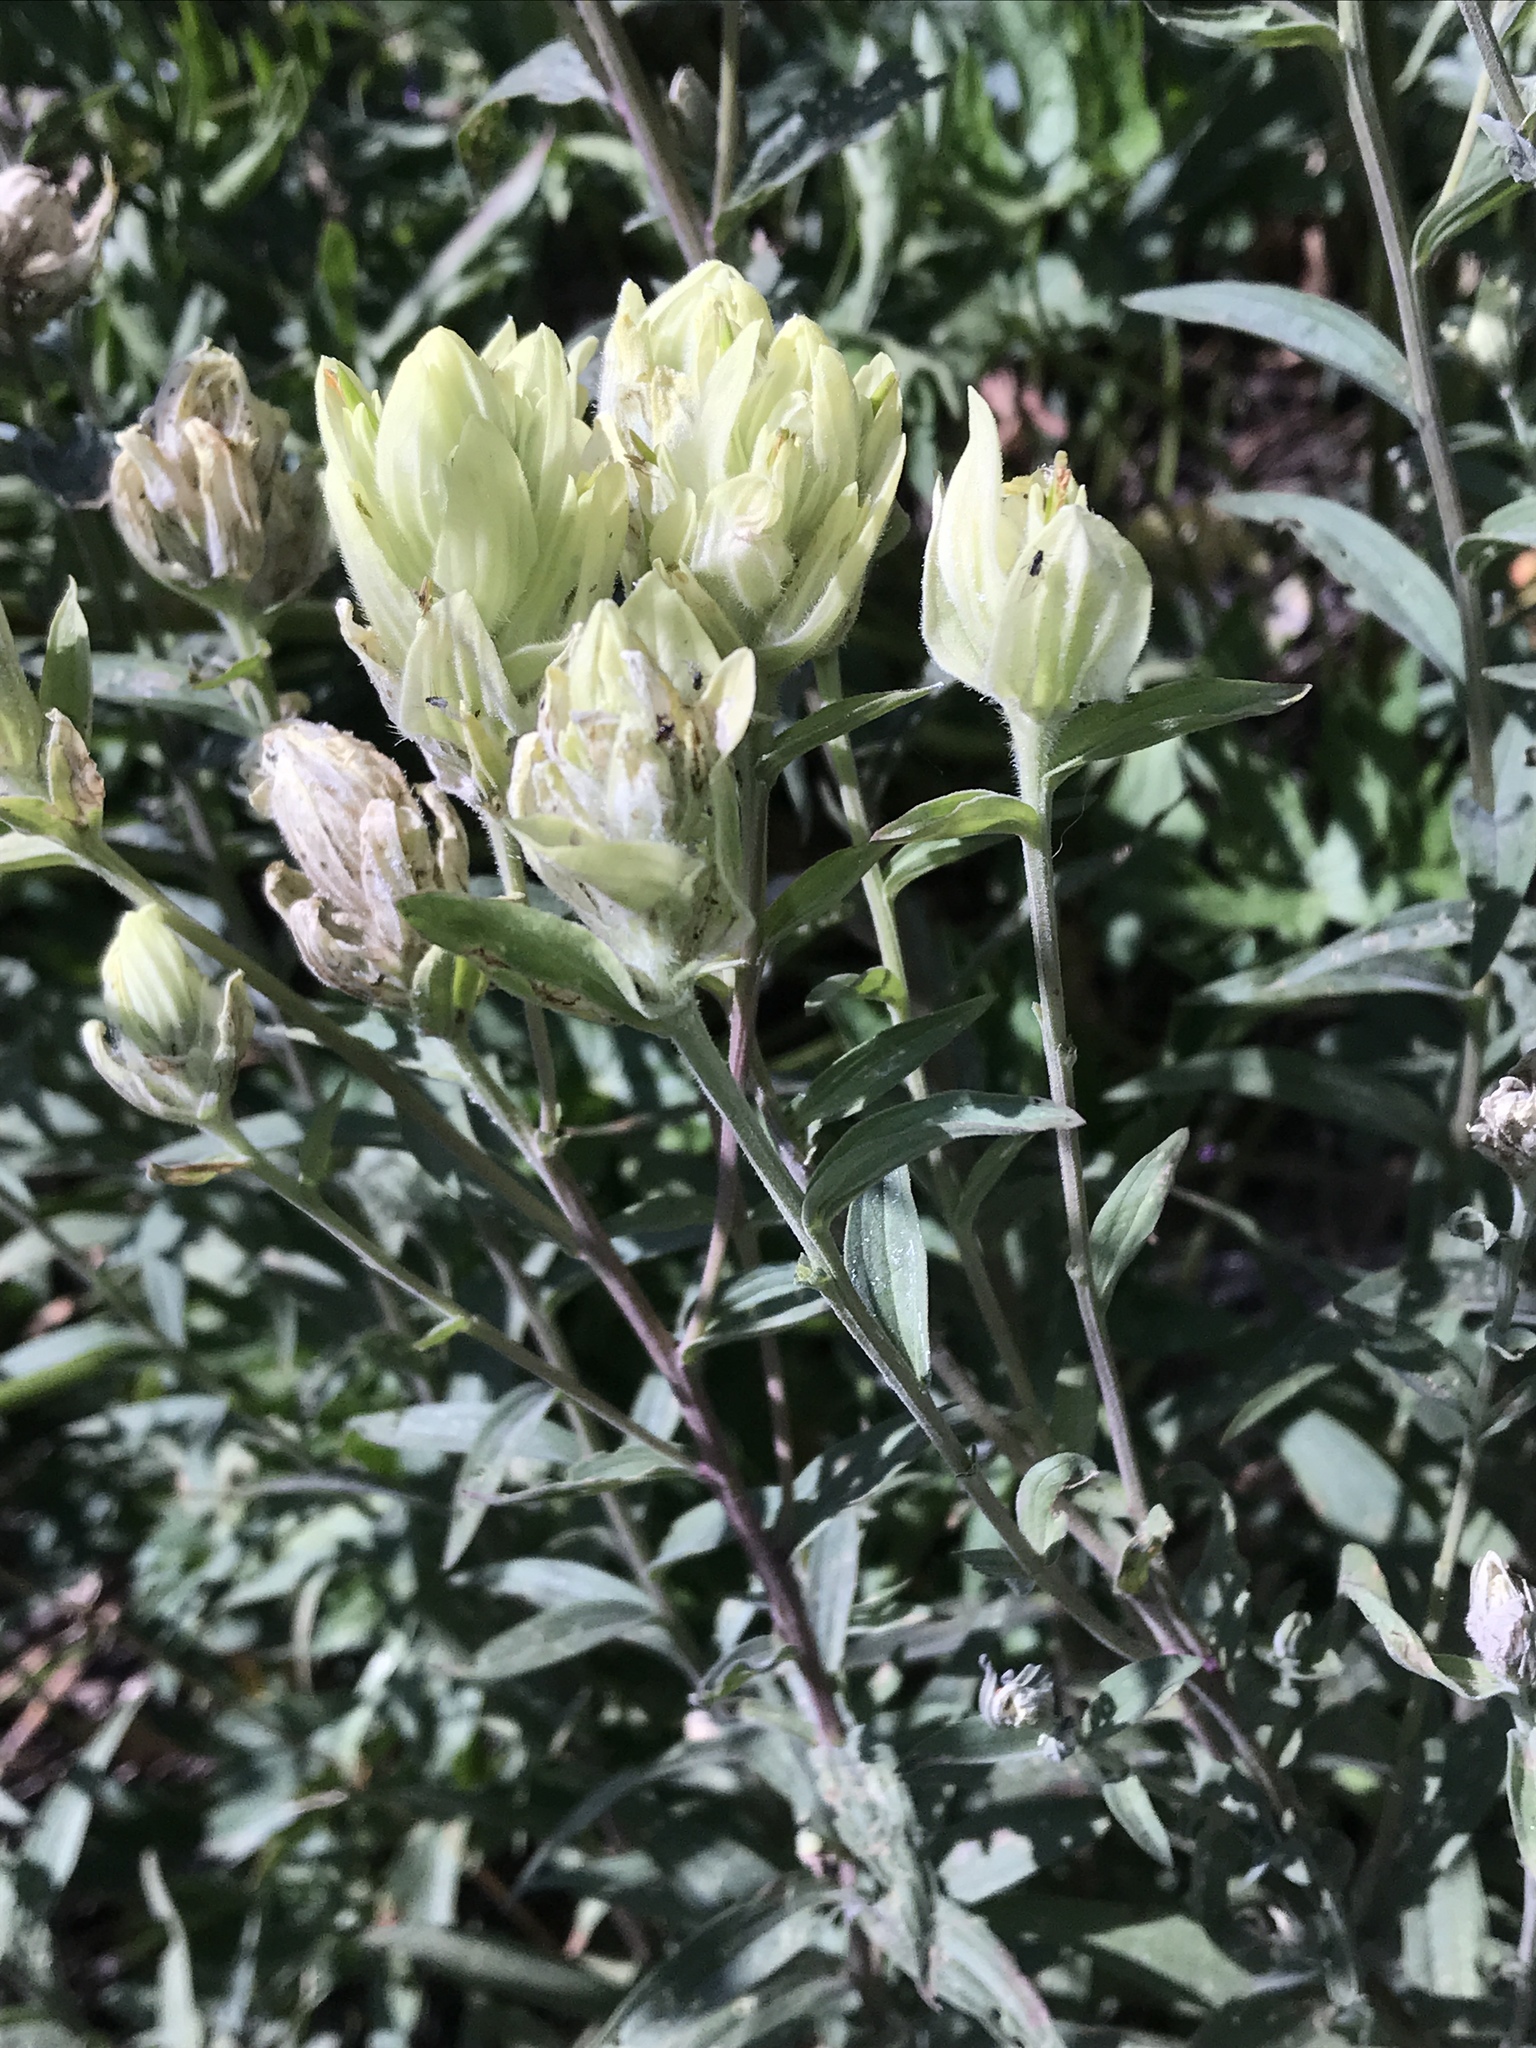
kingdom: Plantae
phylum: Tracheophyta
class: Magnoliopsida
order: Lamiales
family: Orobanchaceae
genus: Castilleja
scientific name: Castilleja septentrionalis
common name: Northeastern paintbrush
